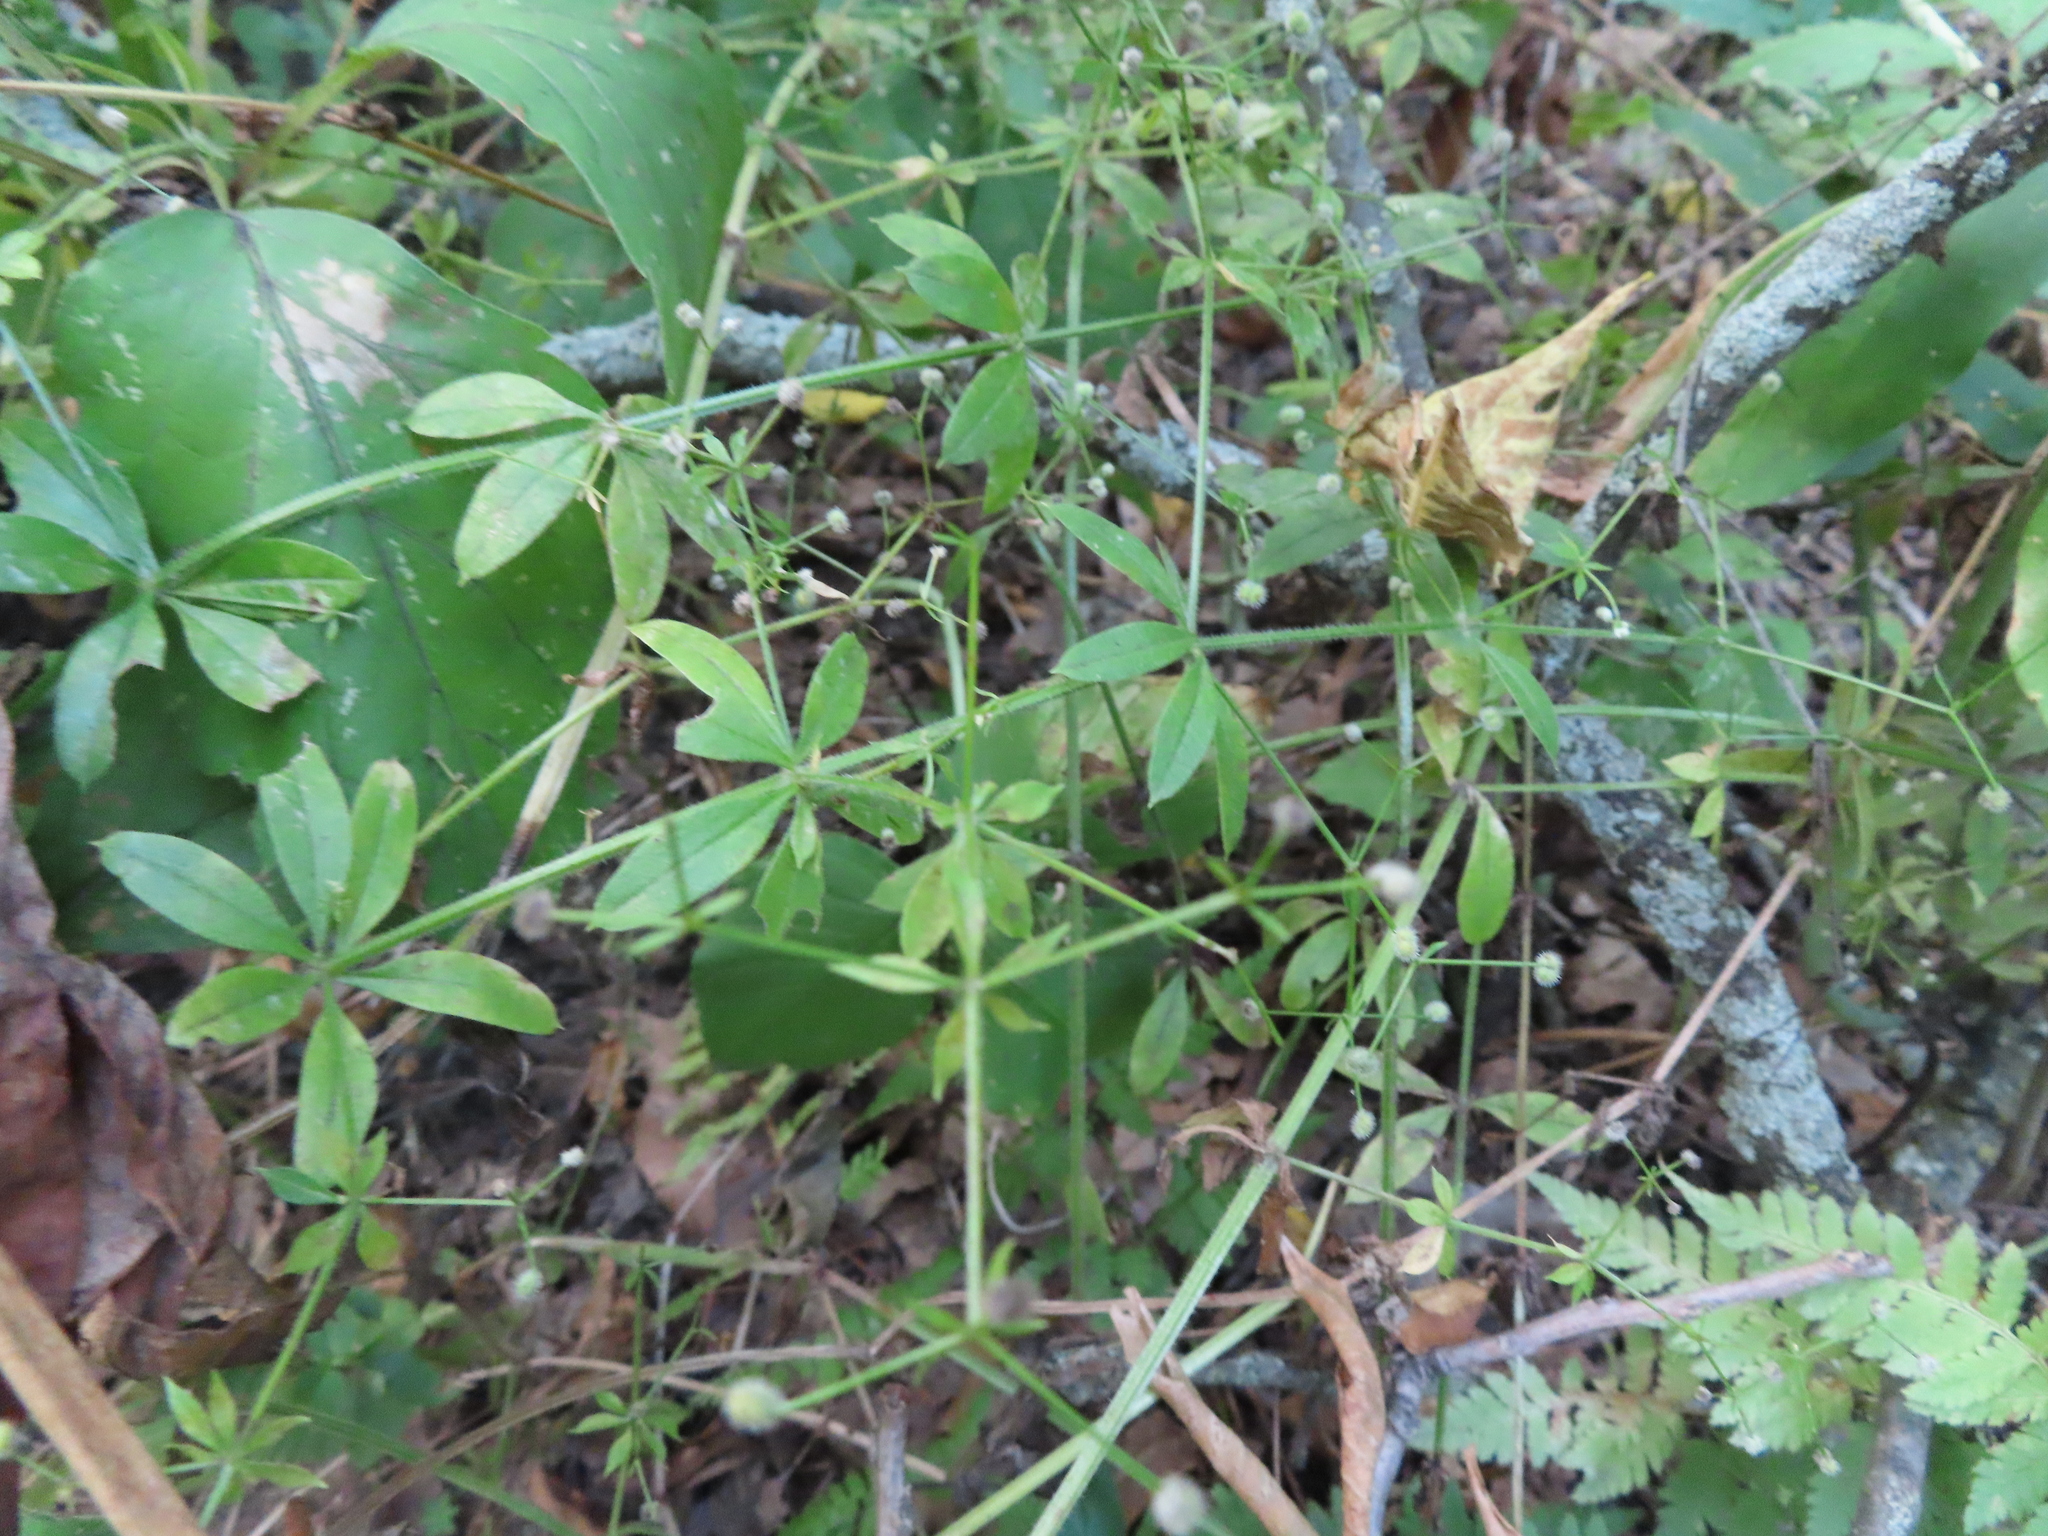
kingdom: Plantae
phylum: Tracheophyta
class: Magnoliopsida
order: Gentianales
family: Rubiaceae
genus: Galium
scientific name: Galium triflorum
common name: Fragrant bedstraw
